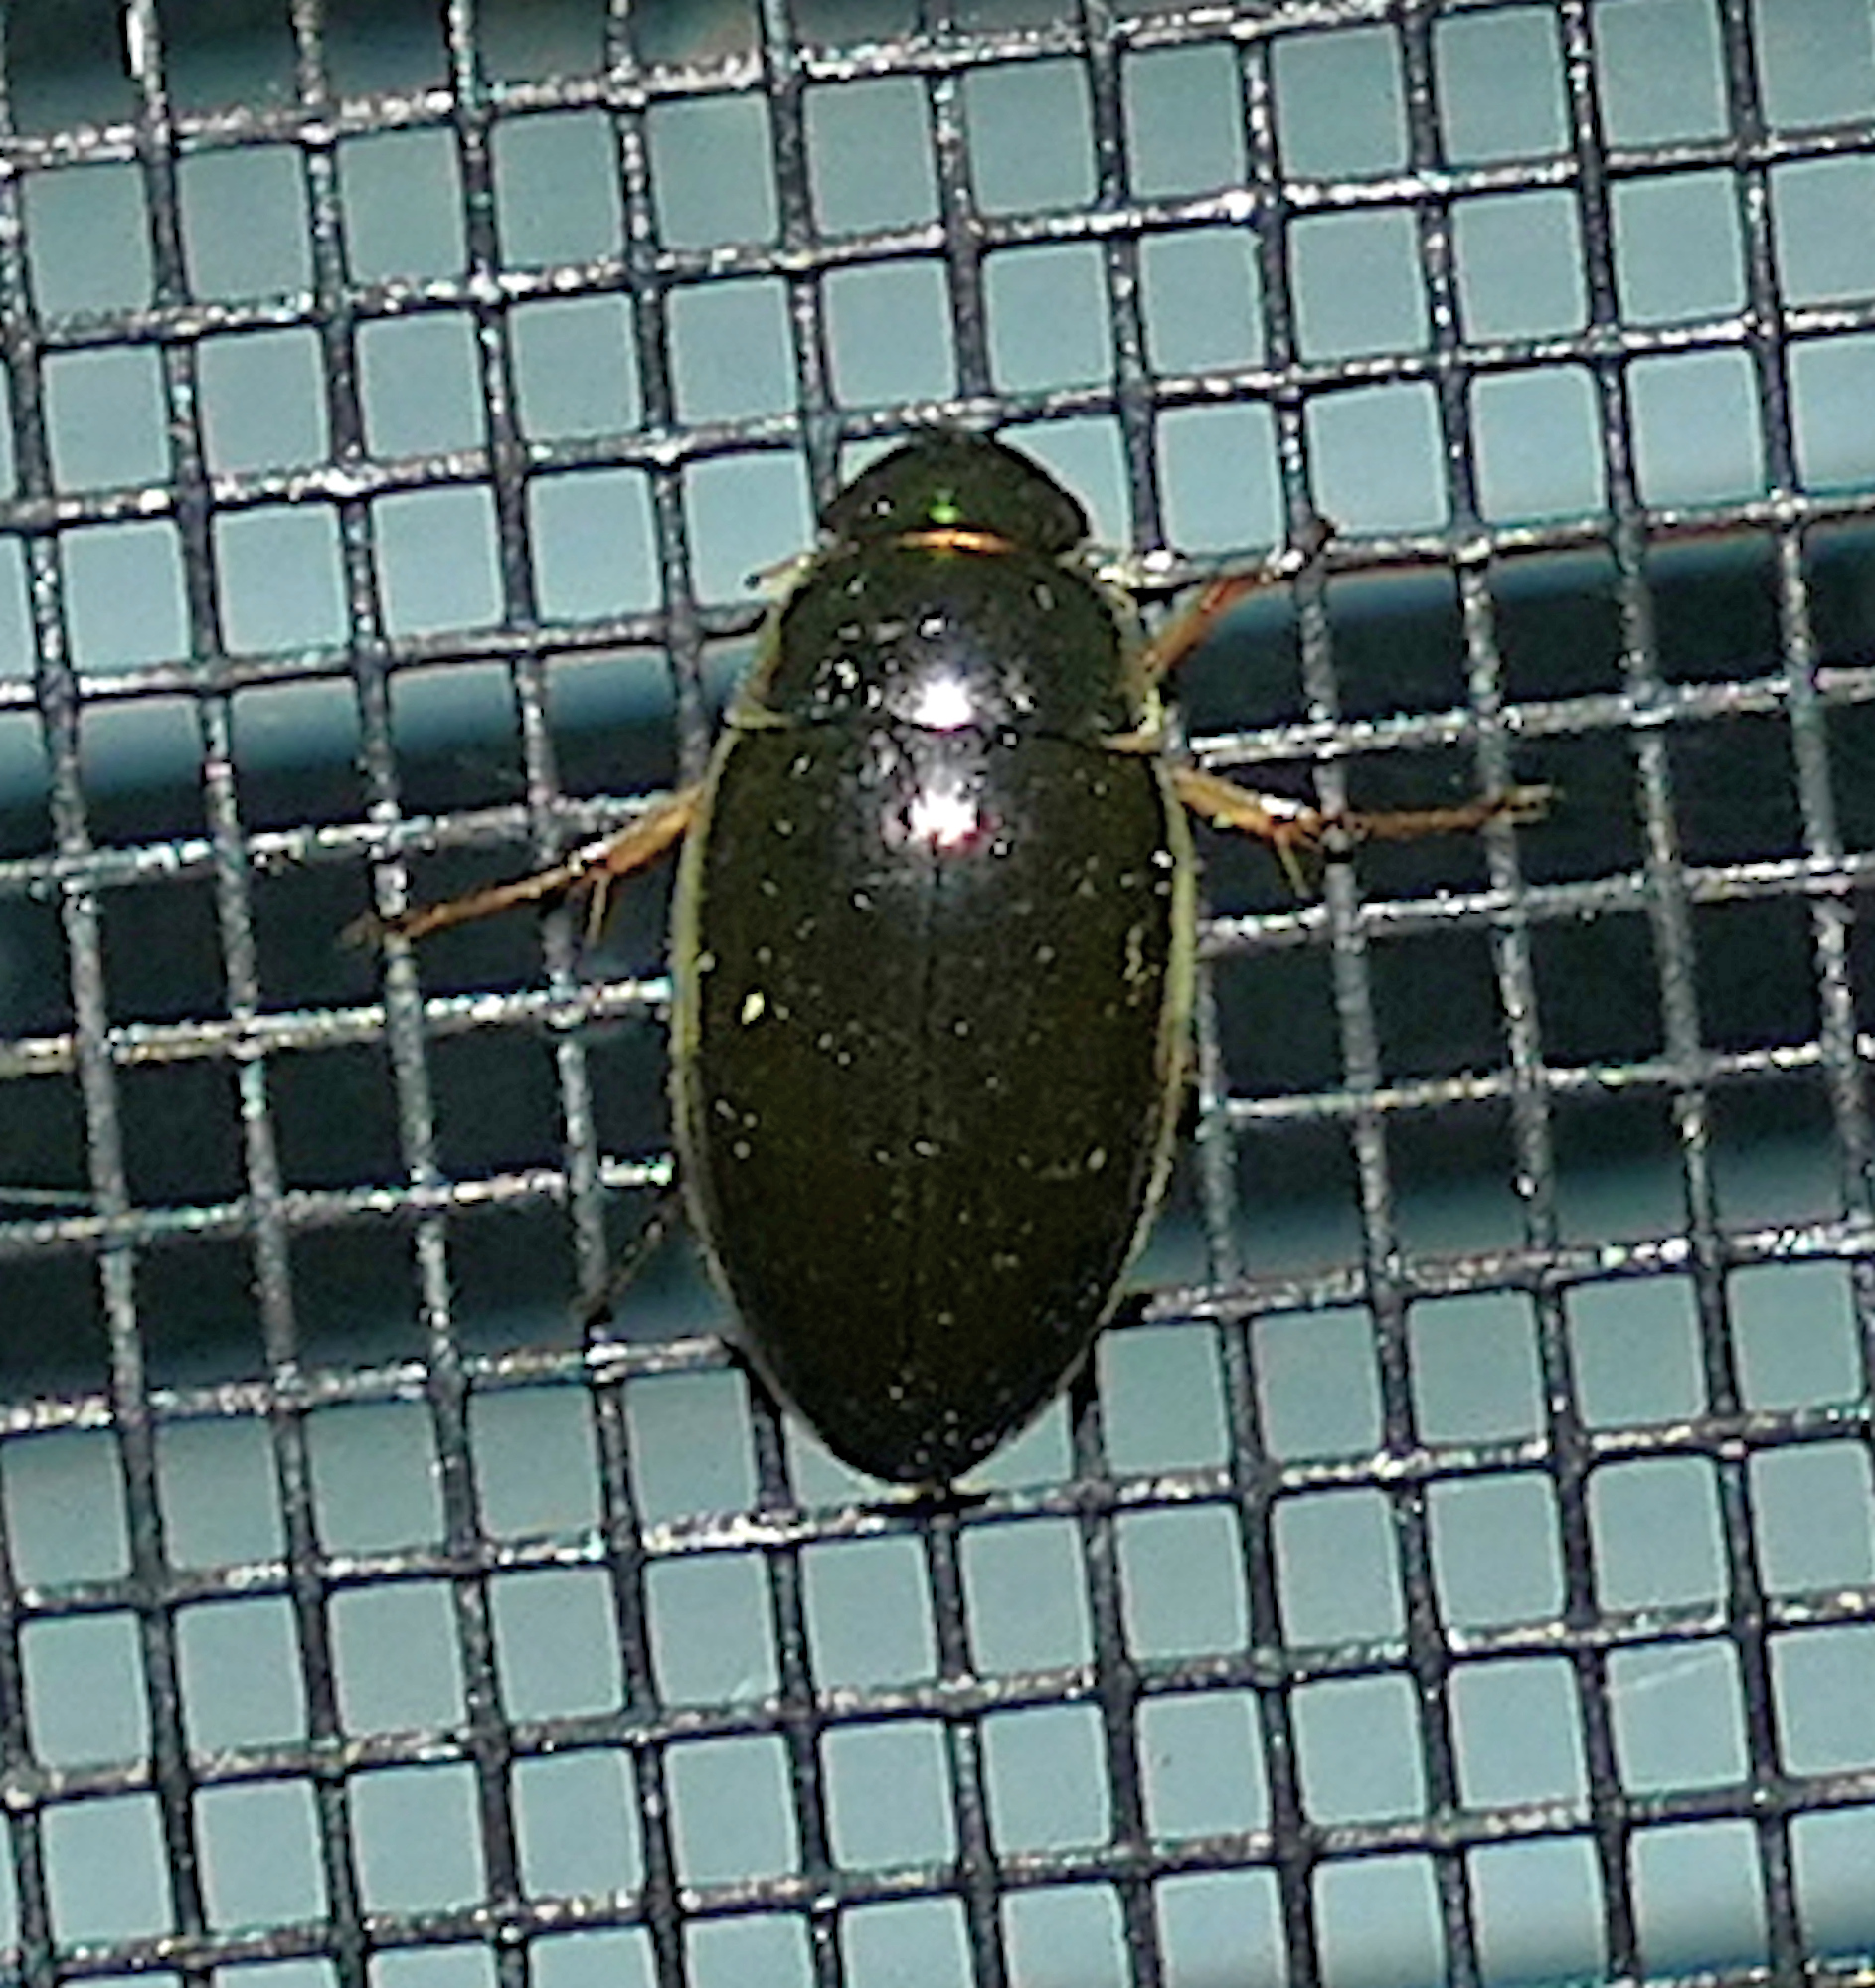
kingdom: Animalia
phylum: Arthropoda
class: Insecta
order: Coleoptera
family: Hydrophilidae
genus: Tropisternus
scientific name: Tropisternus lateralis
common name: Lateral-banded water scavenger beetle
